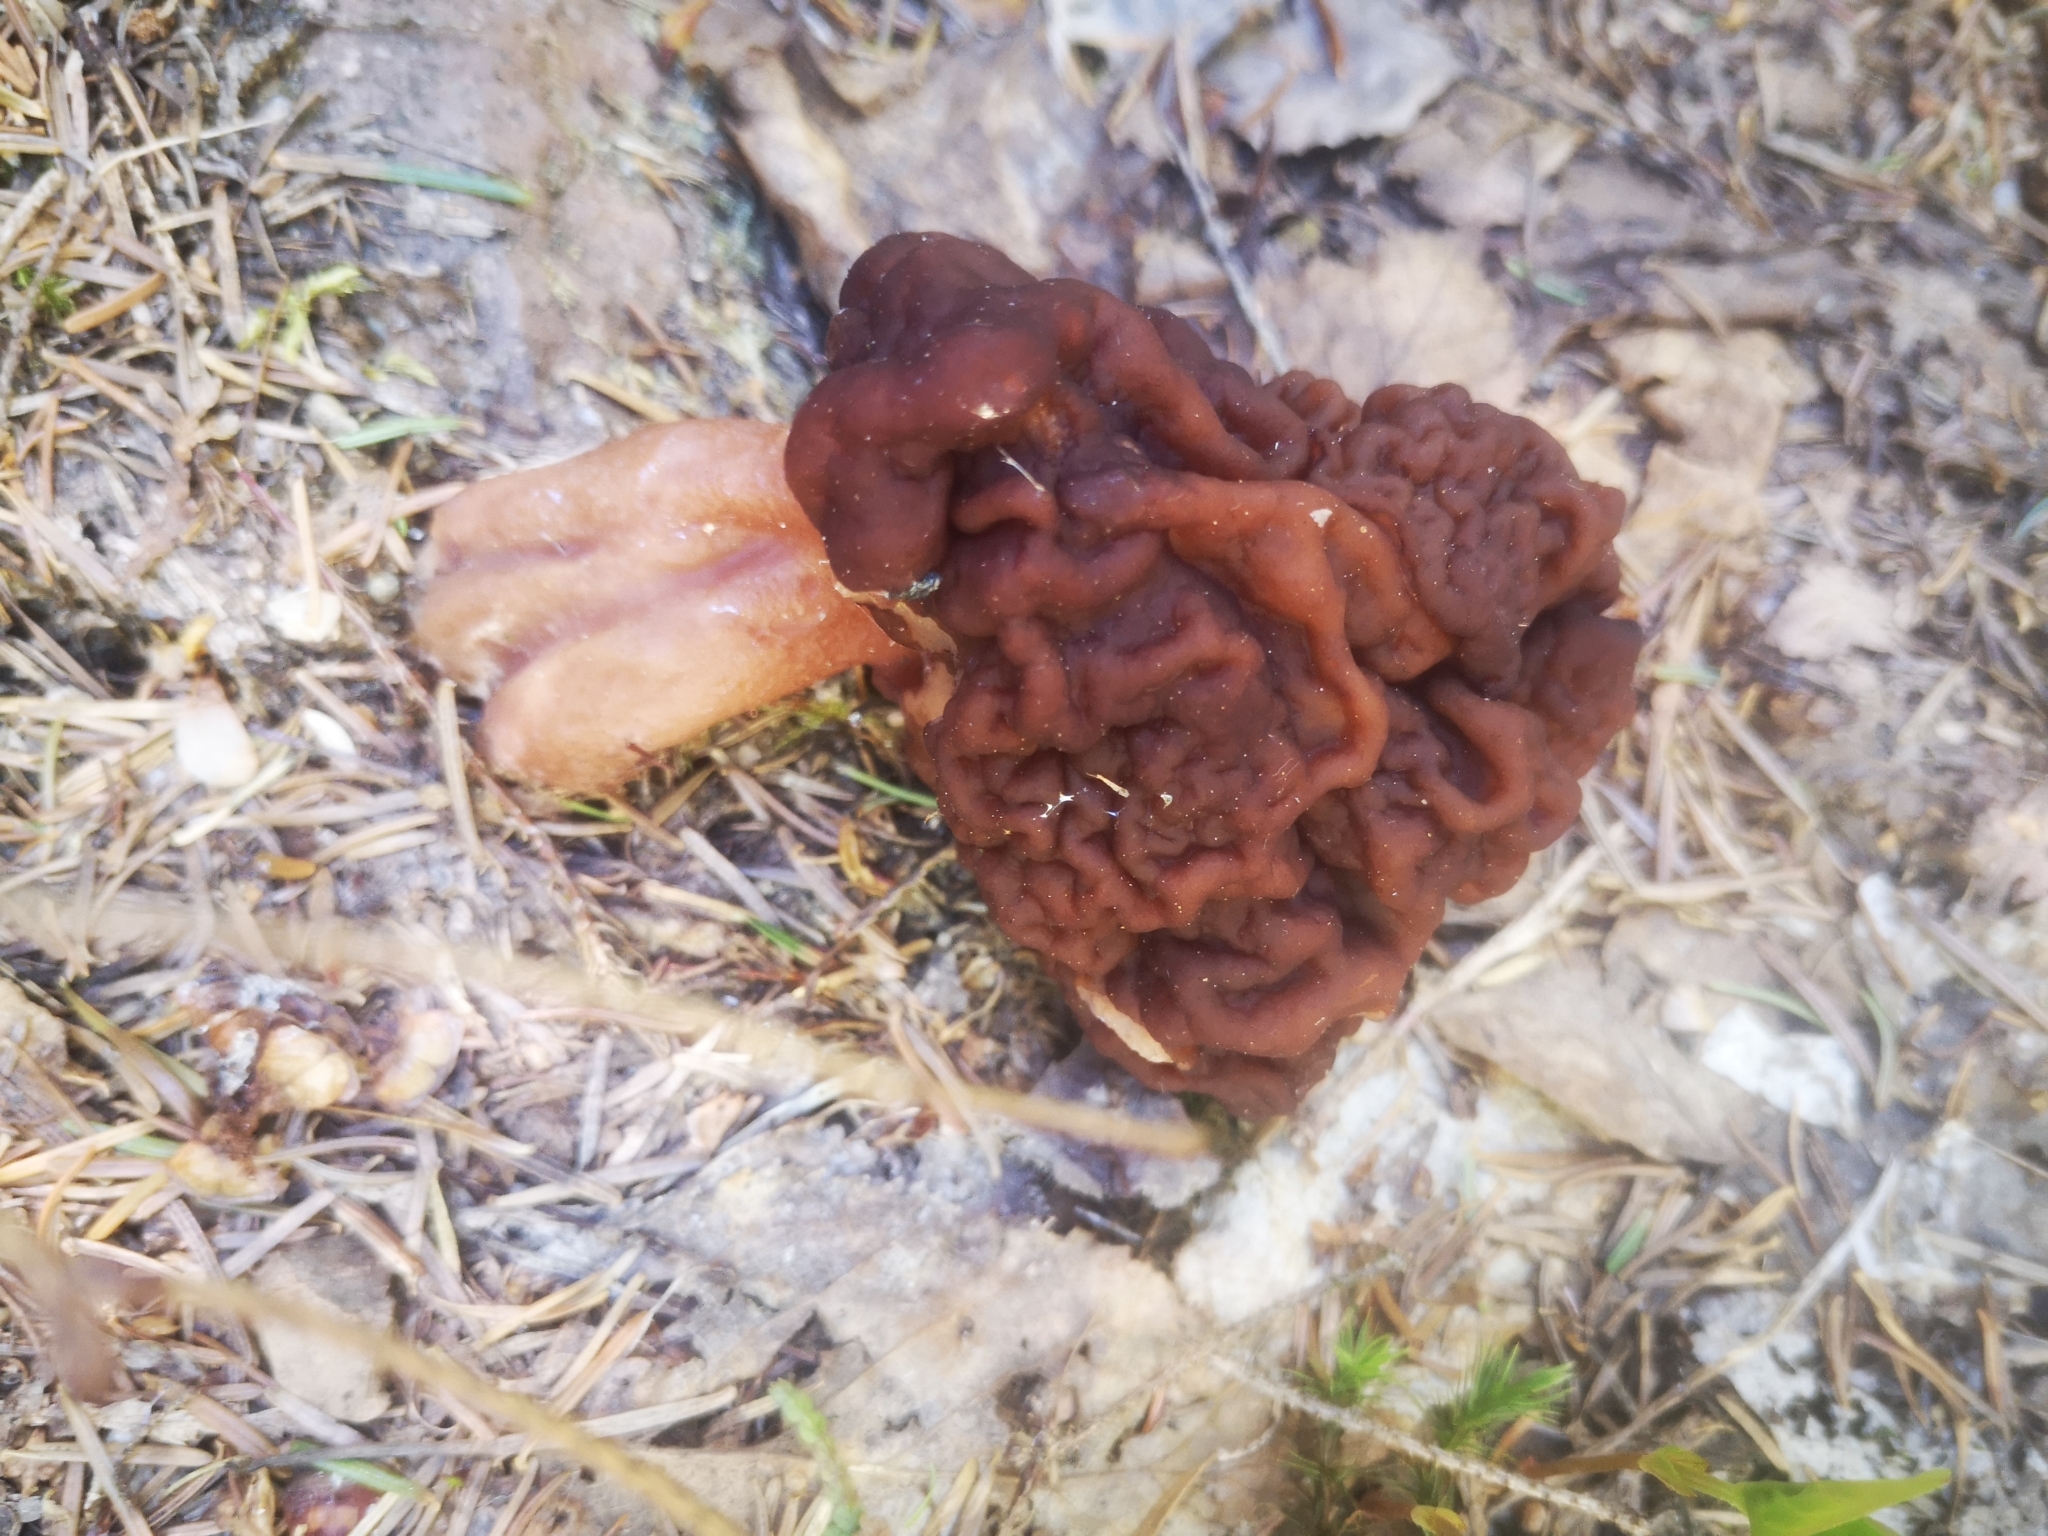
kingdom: Fungi
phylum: Ascomycota
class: Pezizomycetes
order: Pezizales
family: Discinaceae
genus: Gyromitra
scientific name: Gyromitra esculenta
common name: False morel
